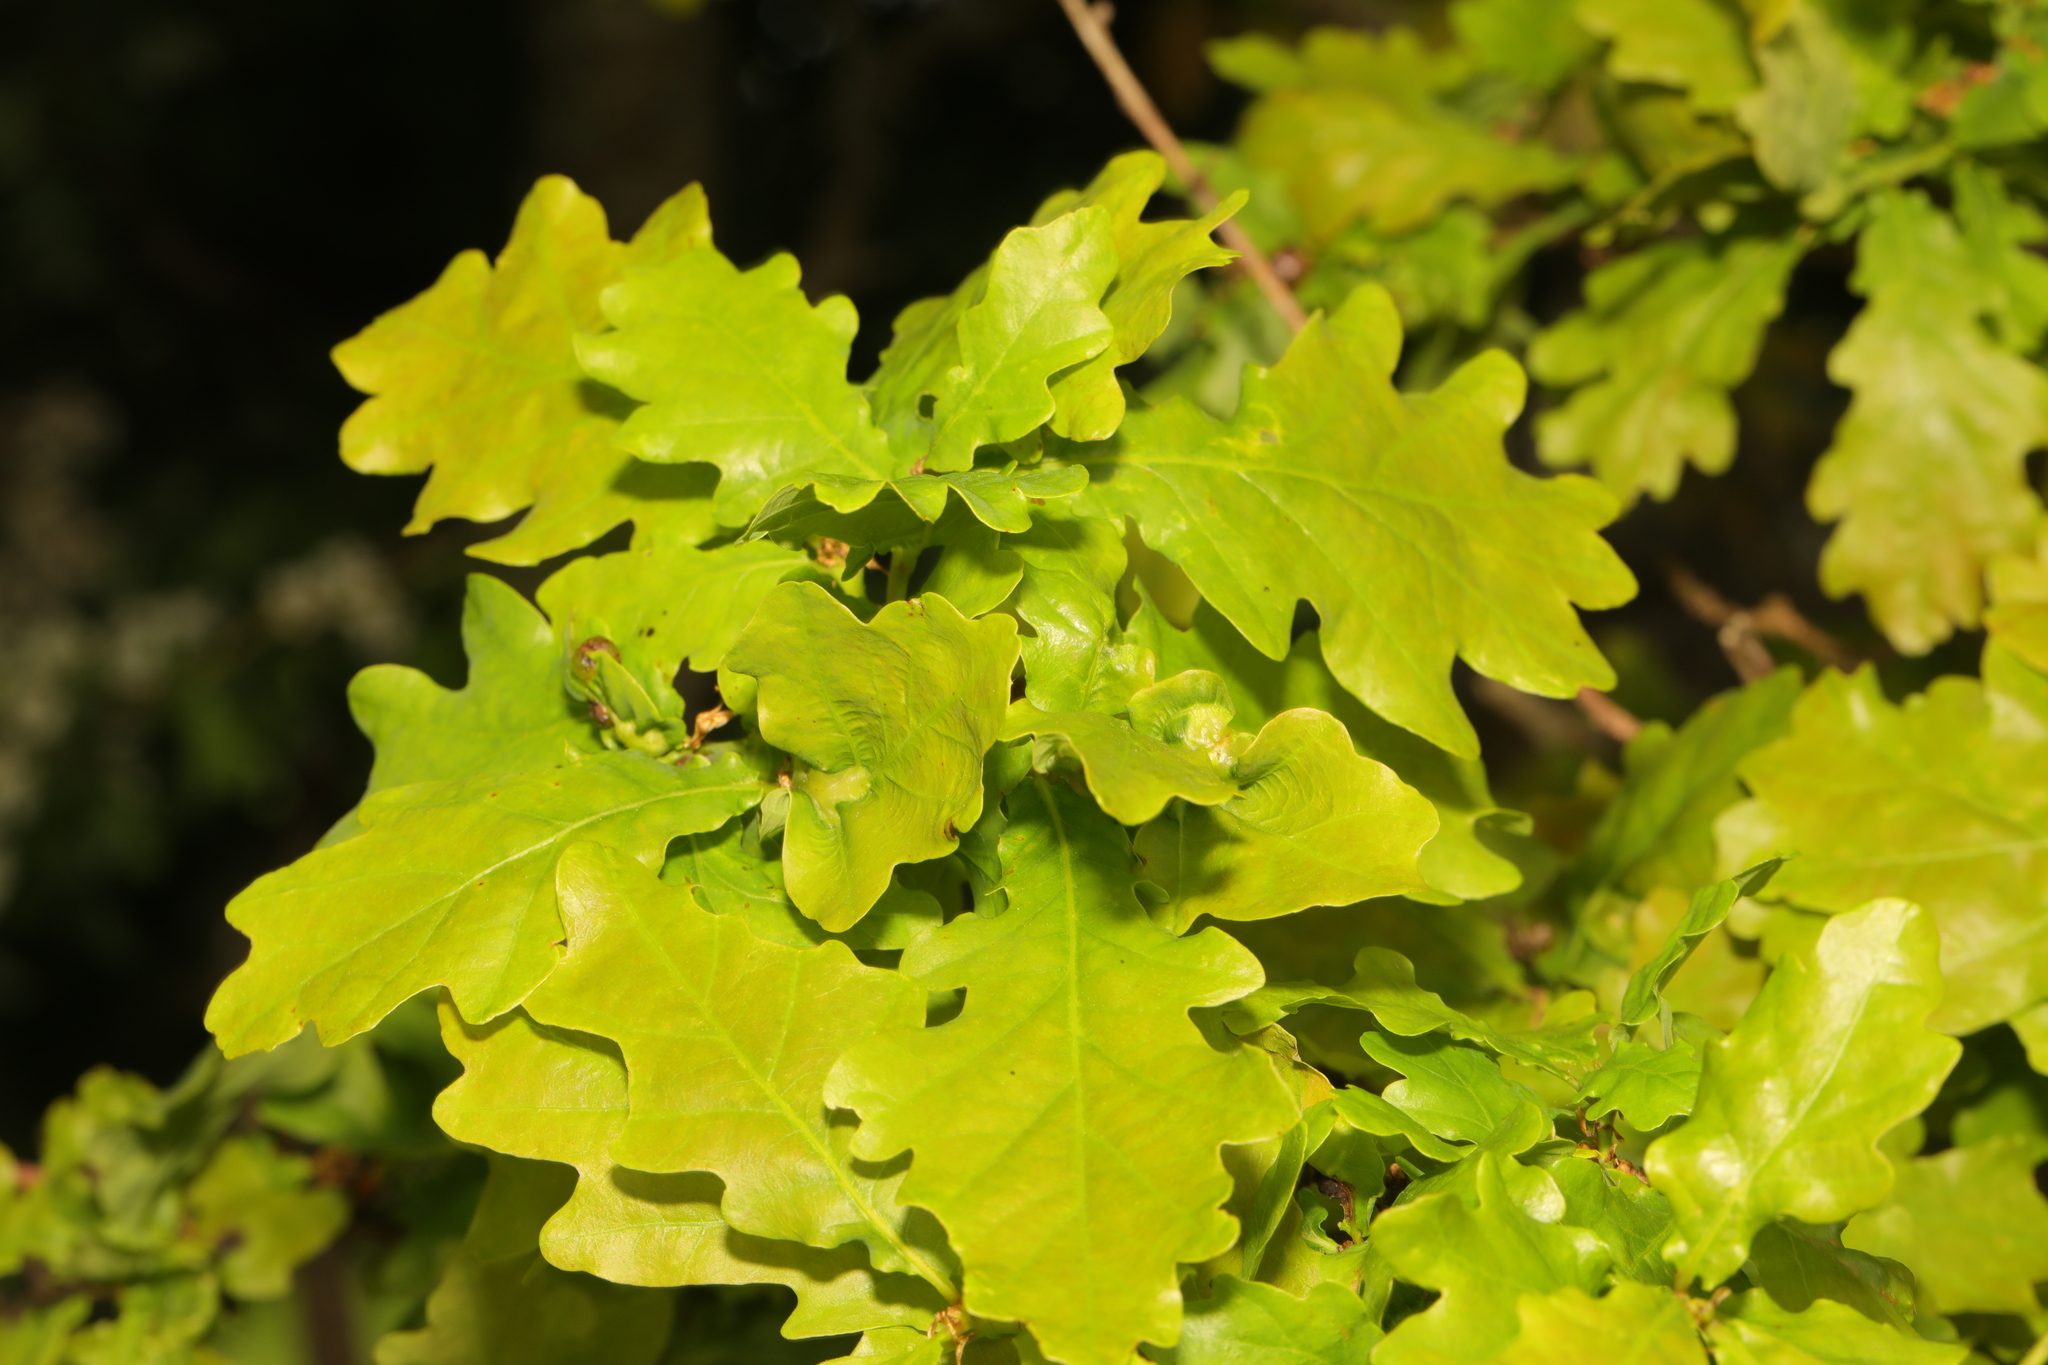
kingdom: Plantae
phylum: Tracheophyta
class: Magnoliopsida
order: Fagales
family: Fagaceae
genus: Quercus
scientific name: Quercus robur
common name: Pedunculate oak
